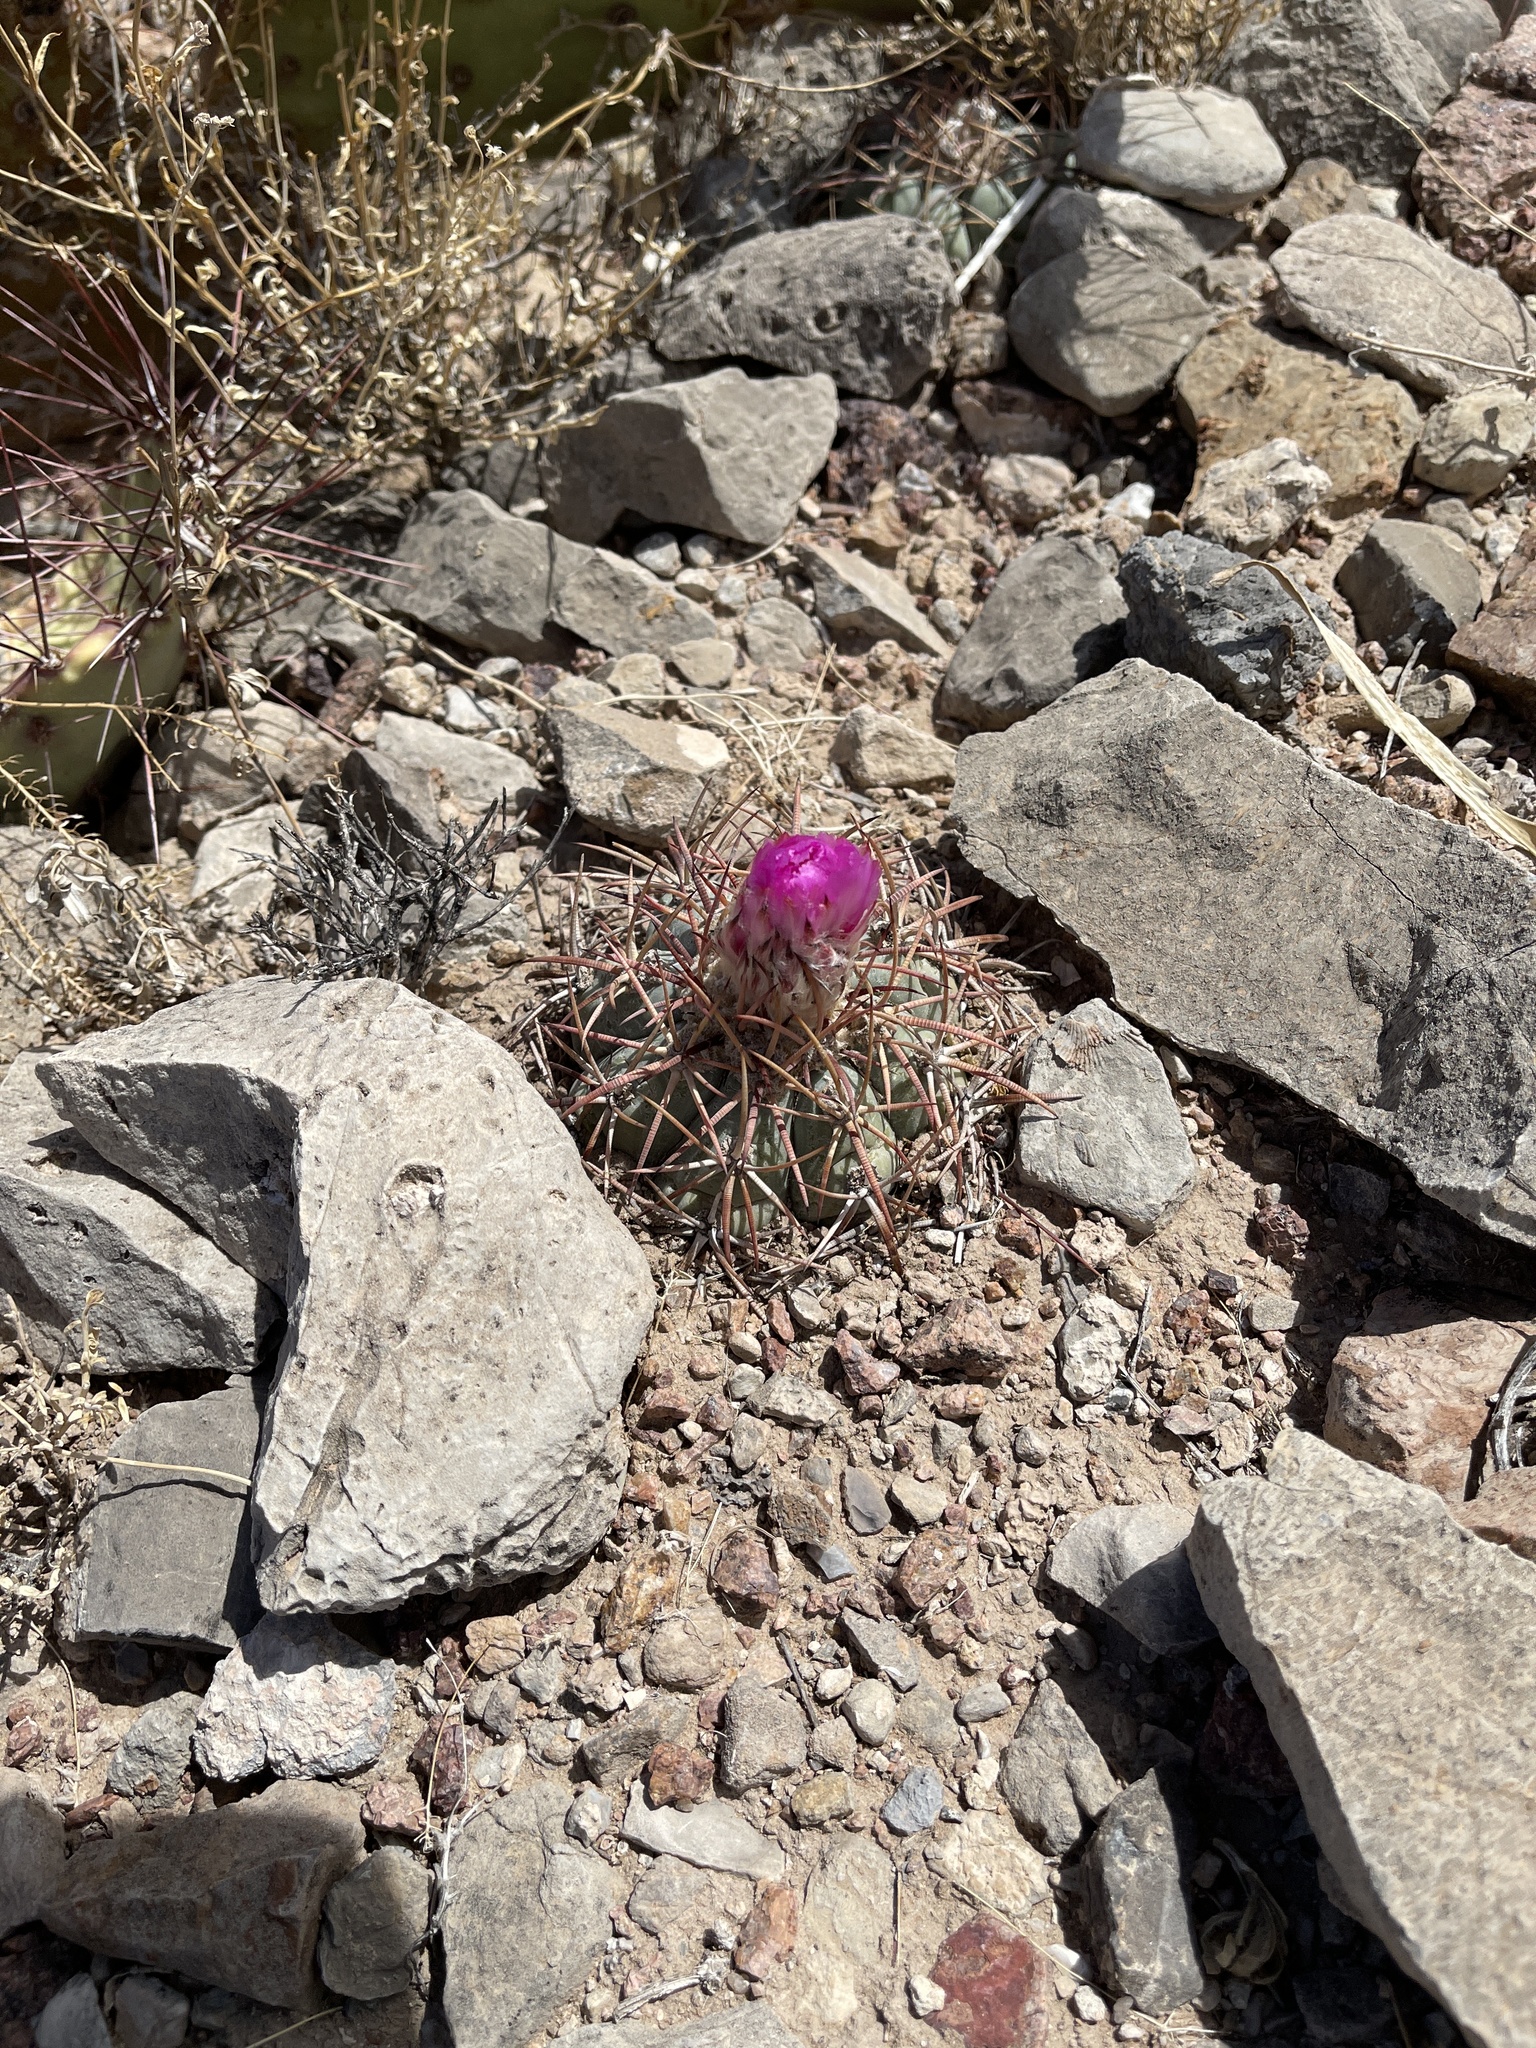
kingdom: Plantae
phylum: Tracheophyta
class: Magnoliopsida
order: Caryophyllales
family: Cactaceae
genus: Echinocactus
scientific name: Echinocactus horizonthalonius
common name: Devilshead
